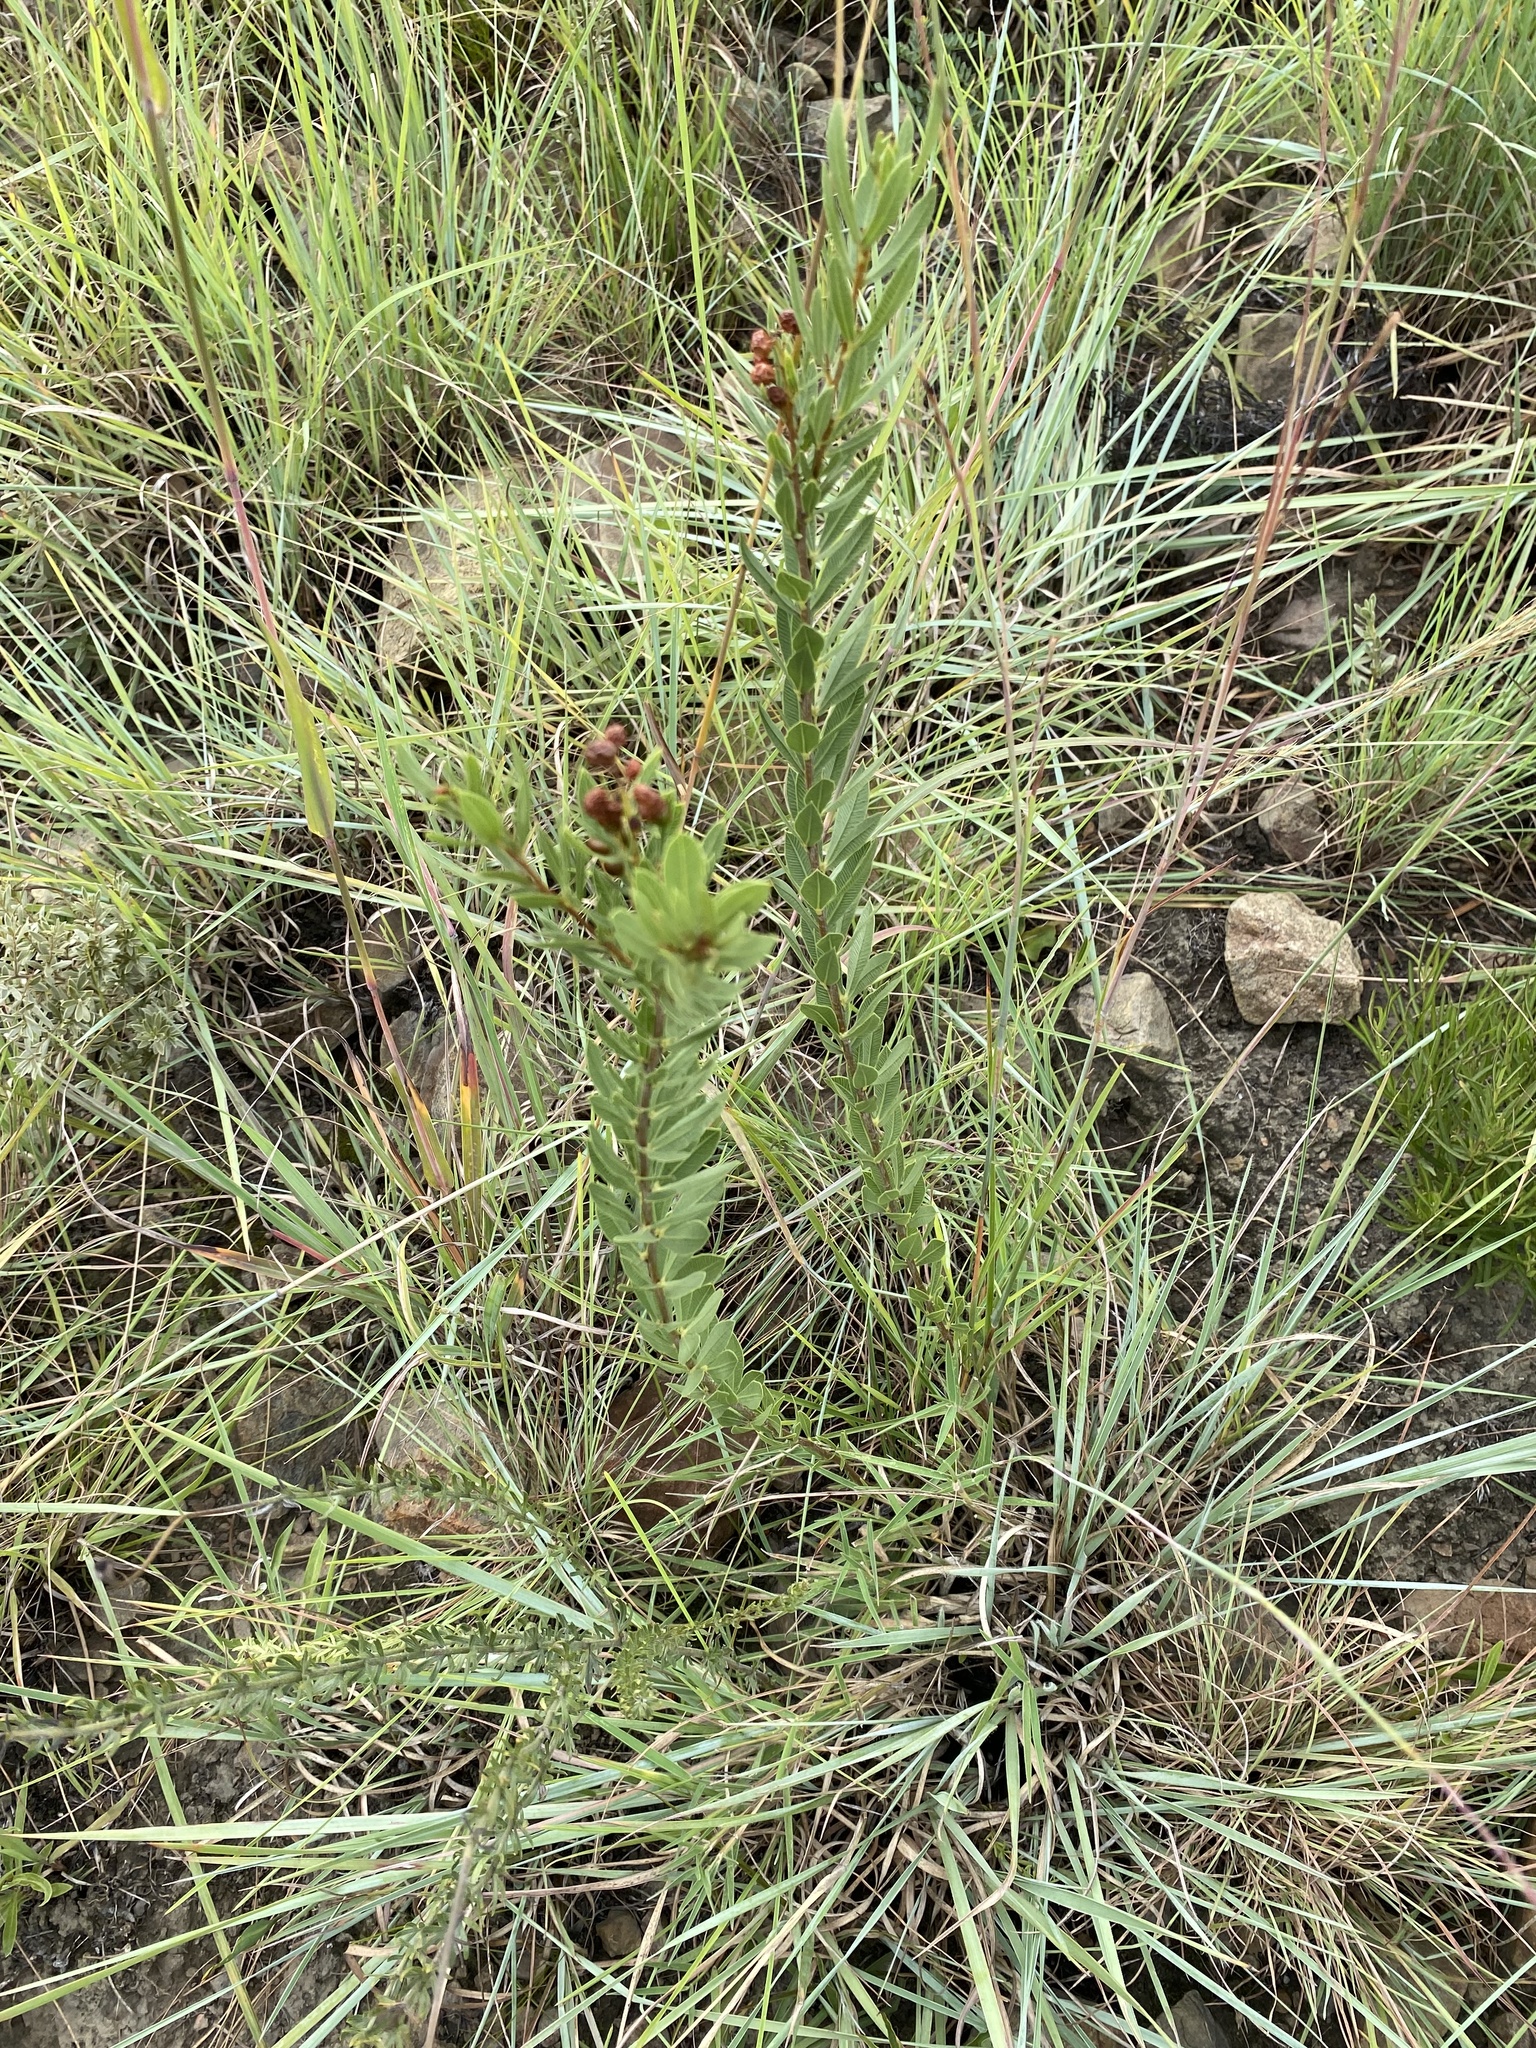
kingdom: Plantae
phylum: Tracheophyta
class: Magnoliopsida
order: Sapindales
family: Anacardiaceae
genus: Searsia
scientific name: Searsia pondoensis
